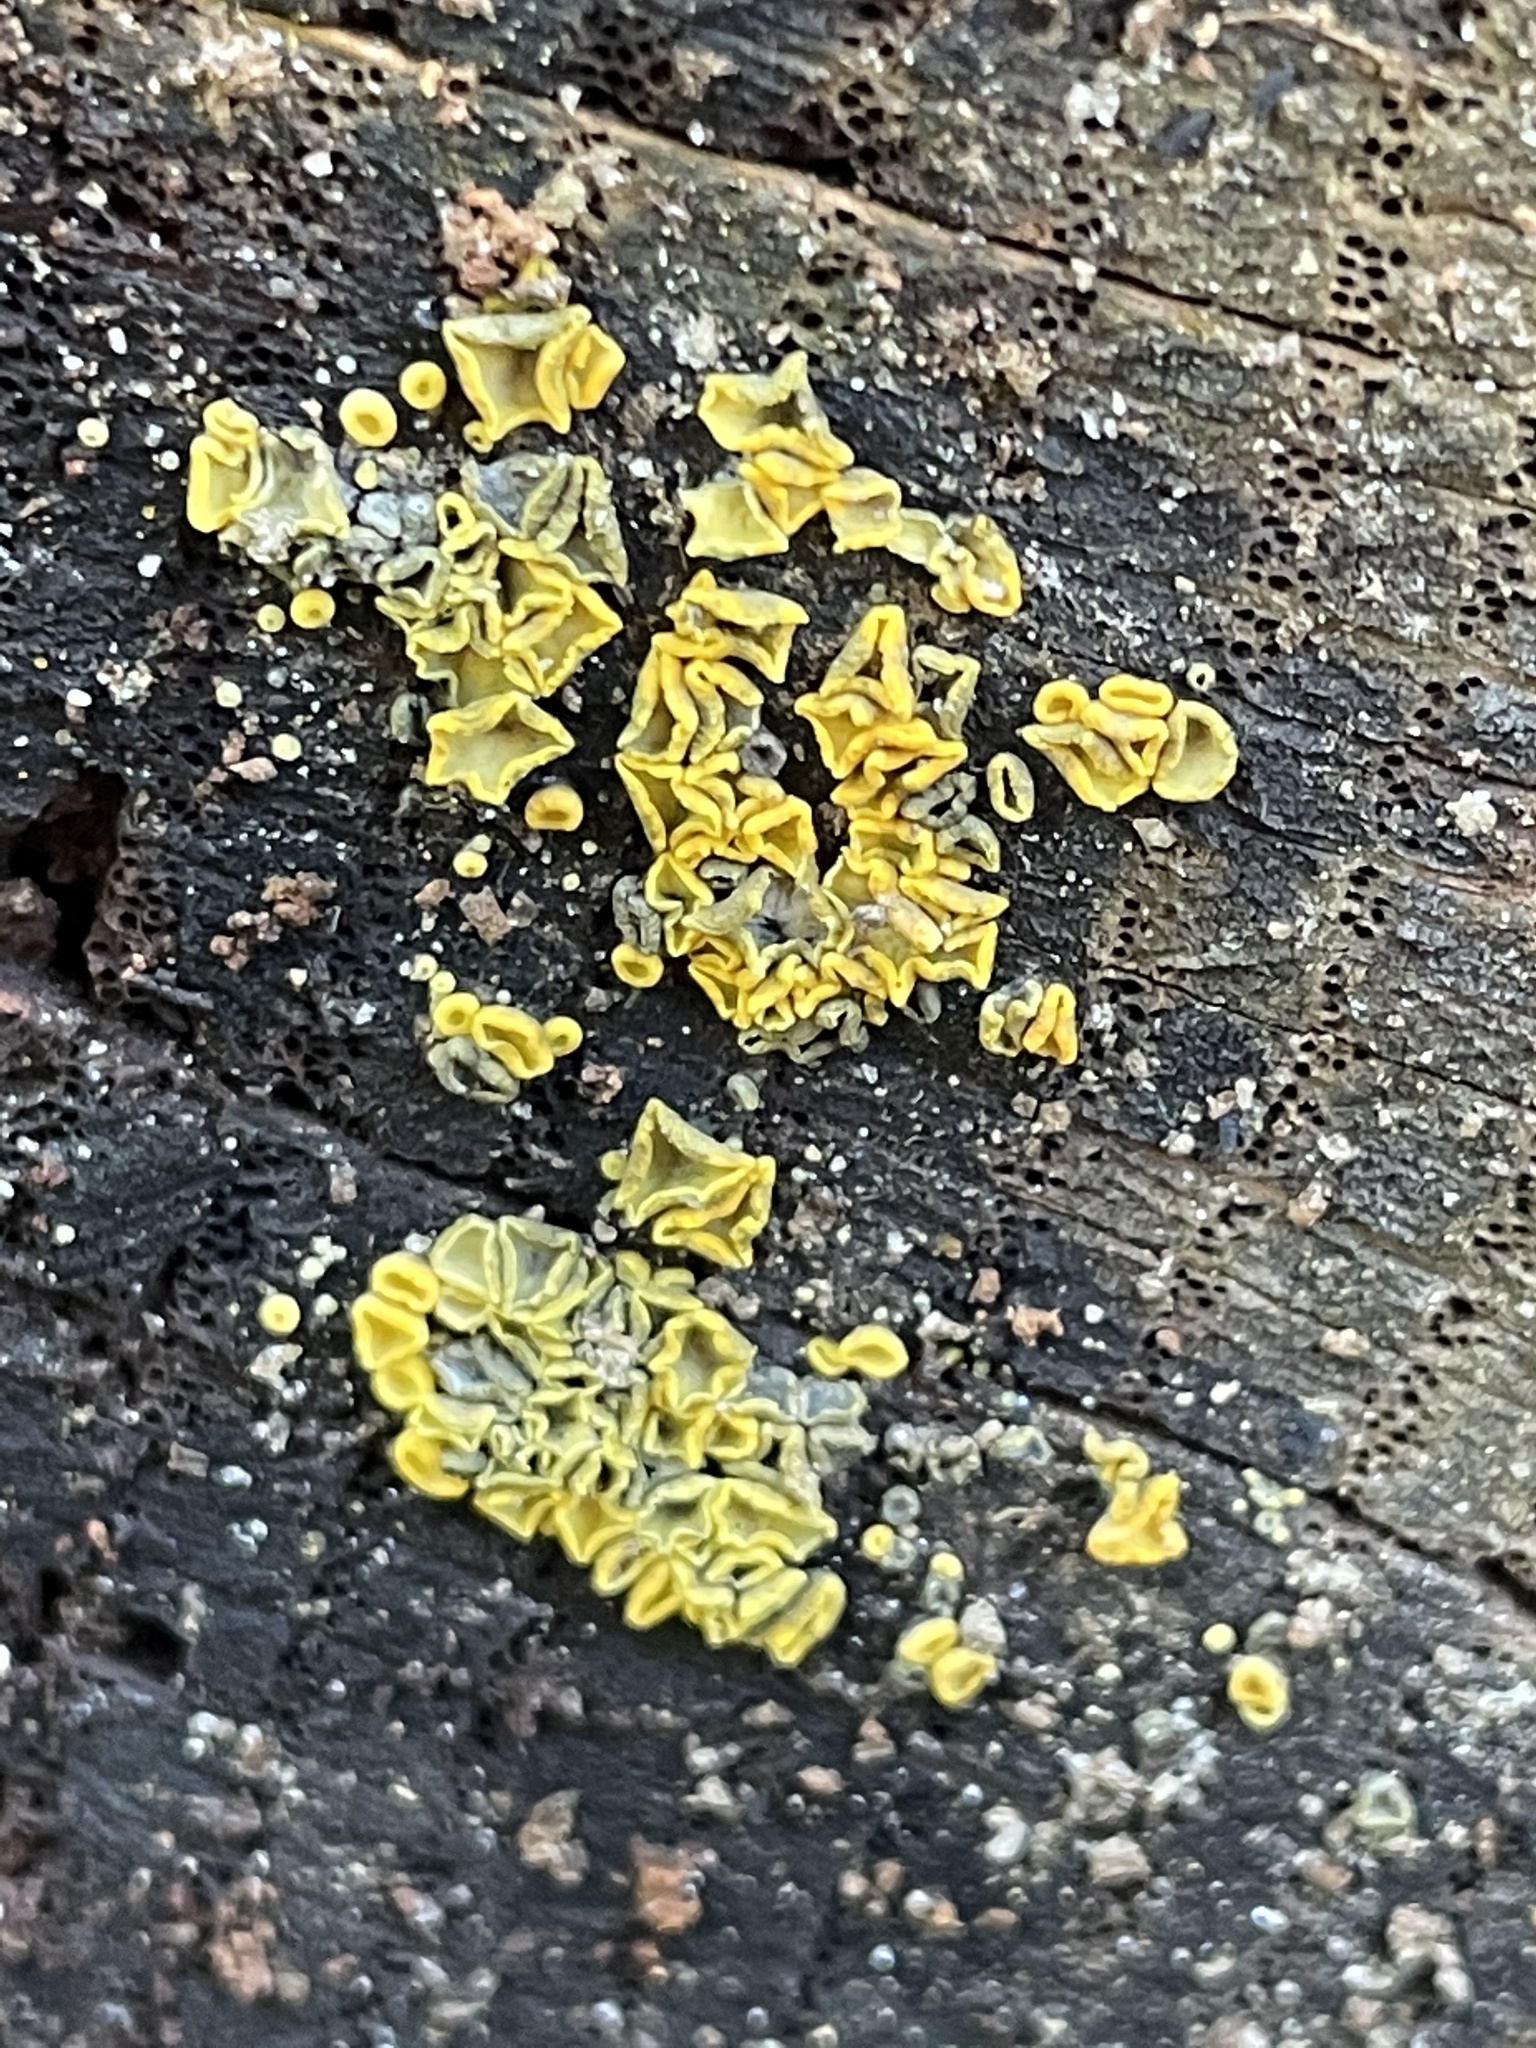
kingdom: Fungi
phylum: Ascomycota
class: Leotiomycetes
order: Helotiales
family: Chlorospleniaceae
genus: Chlorosplenium
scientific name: Chlorosplenium chlora
